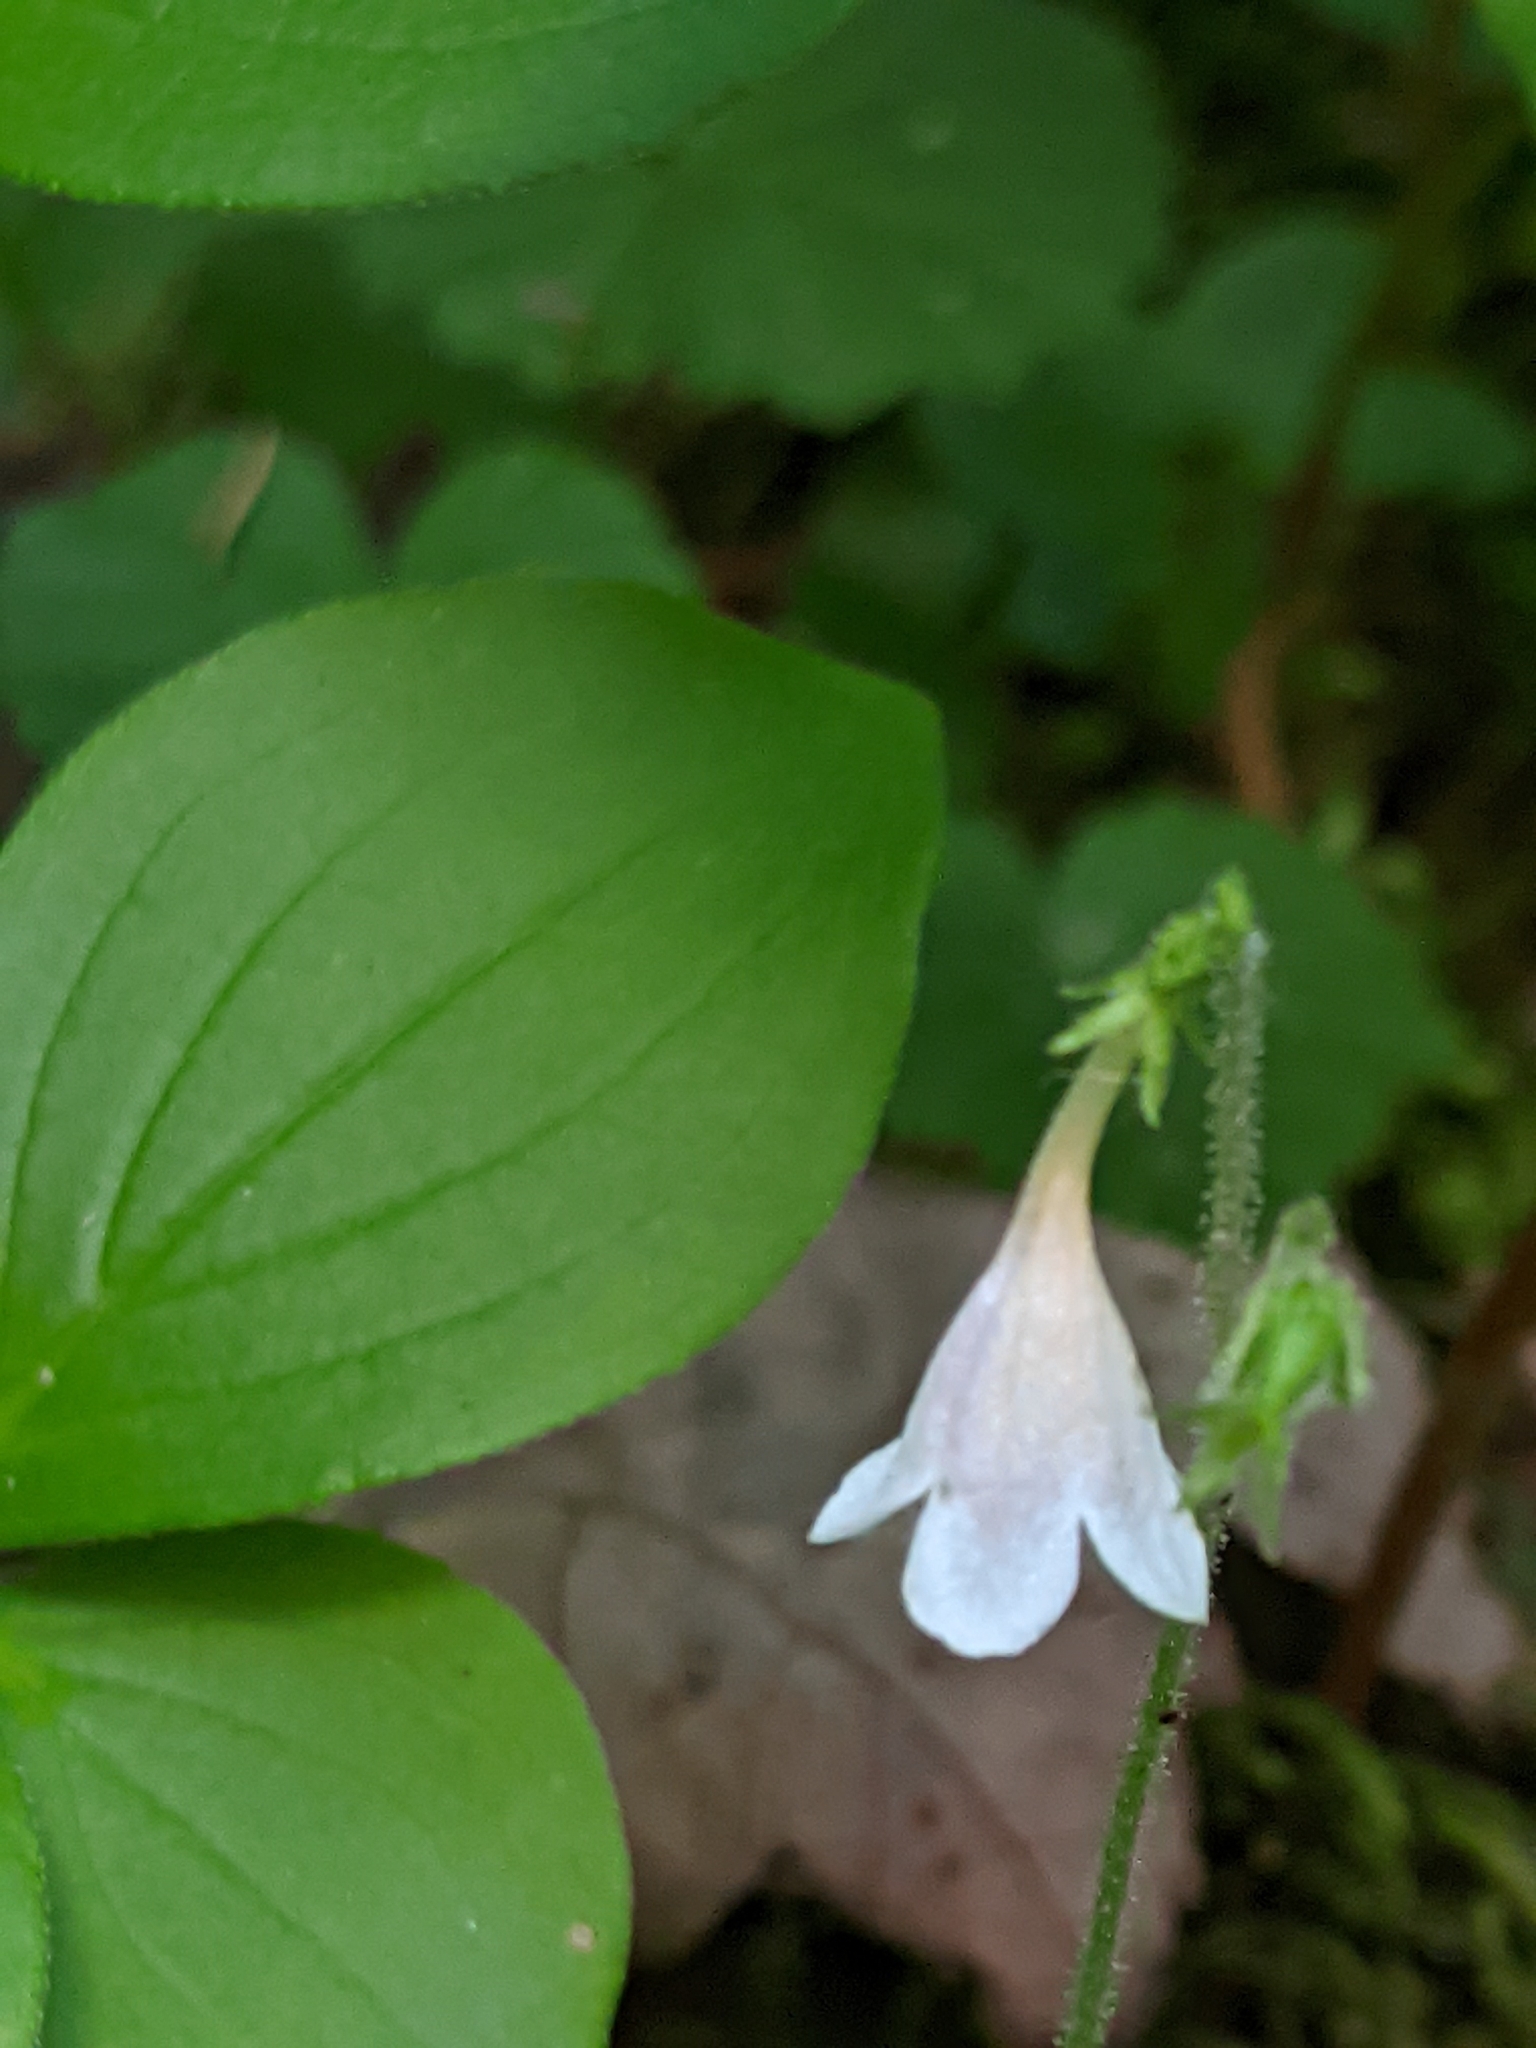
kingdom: Plantae
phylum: Tracheophyta
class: Magnoliopsida
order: Dipsacales
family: Caprifoliaceae
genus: Linnaea
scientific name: Linnaea borealis
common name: Twinflower
